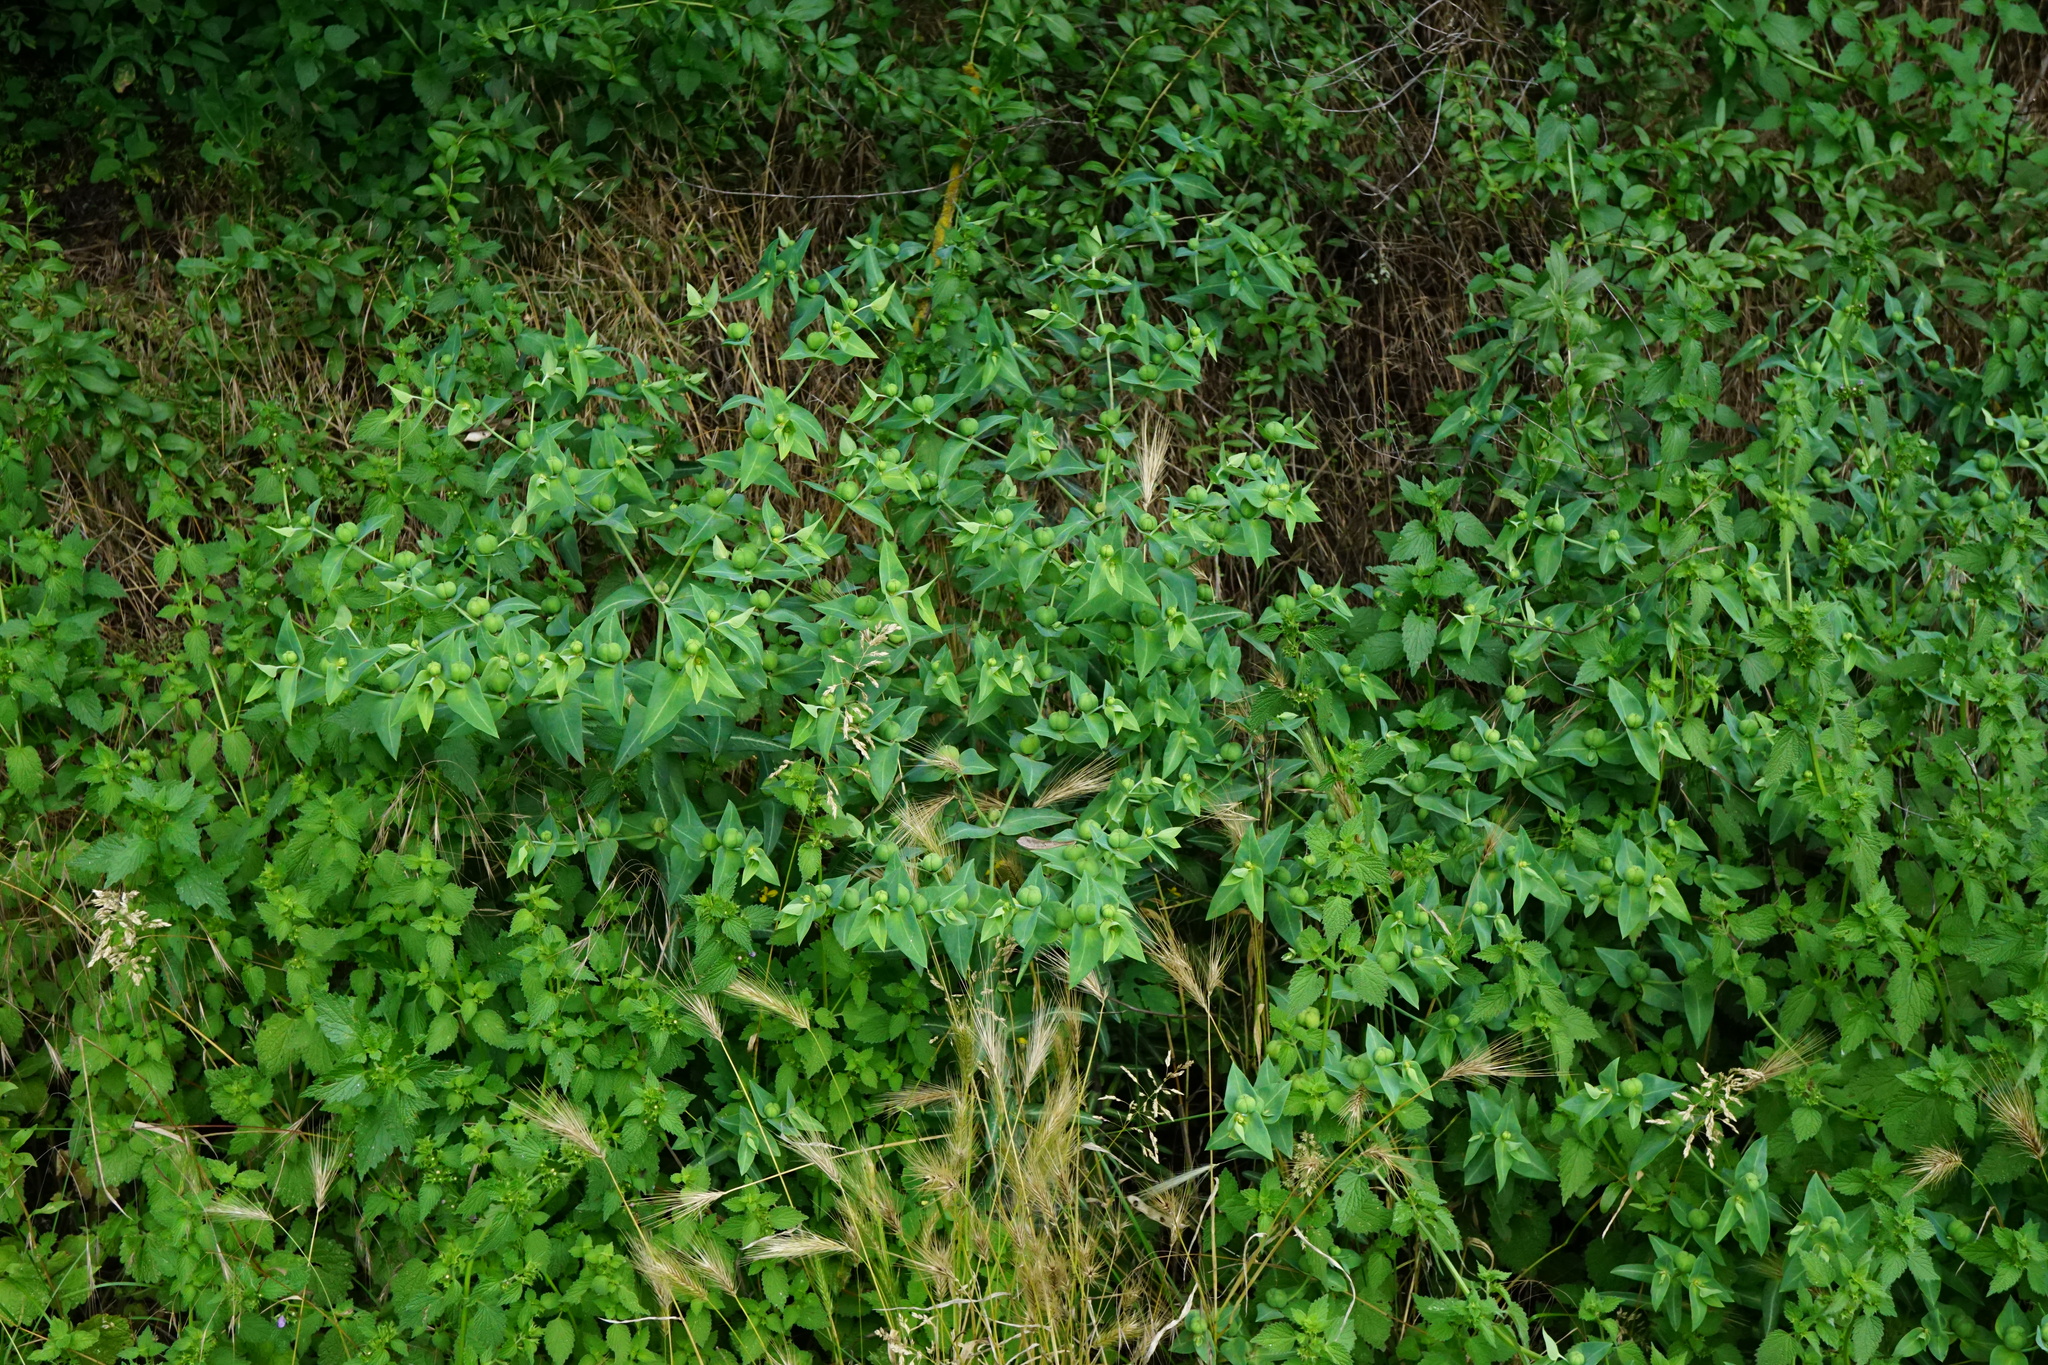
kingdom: Plantae
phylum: Tracheophyta
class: Magnoliopsida
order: Malpighiales
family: Euphorbiaceae
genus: Euphorbia
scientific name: Euphorbia lathyris
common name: Caper spurge
